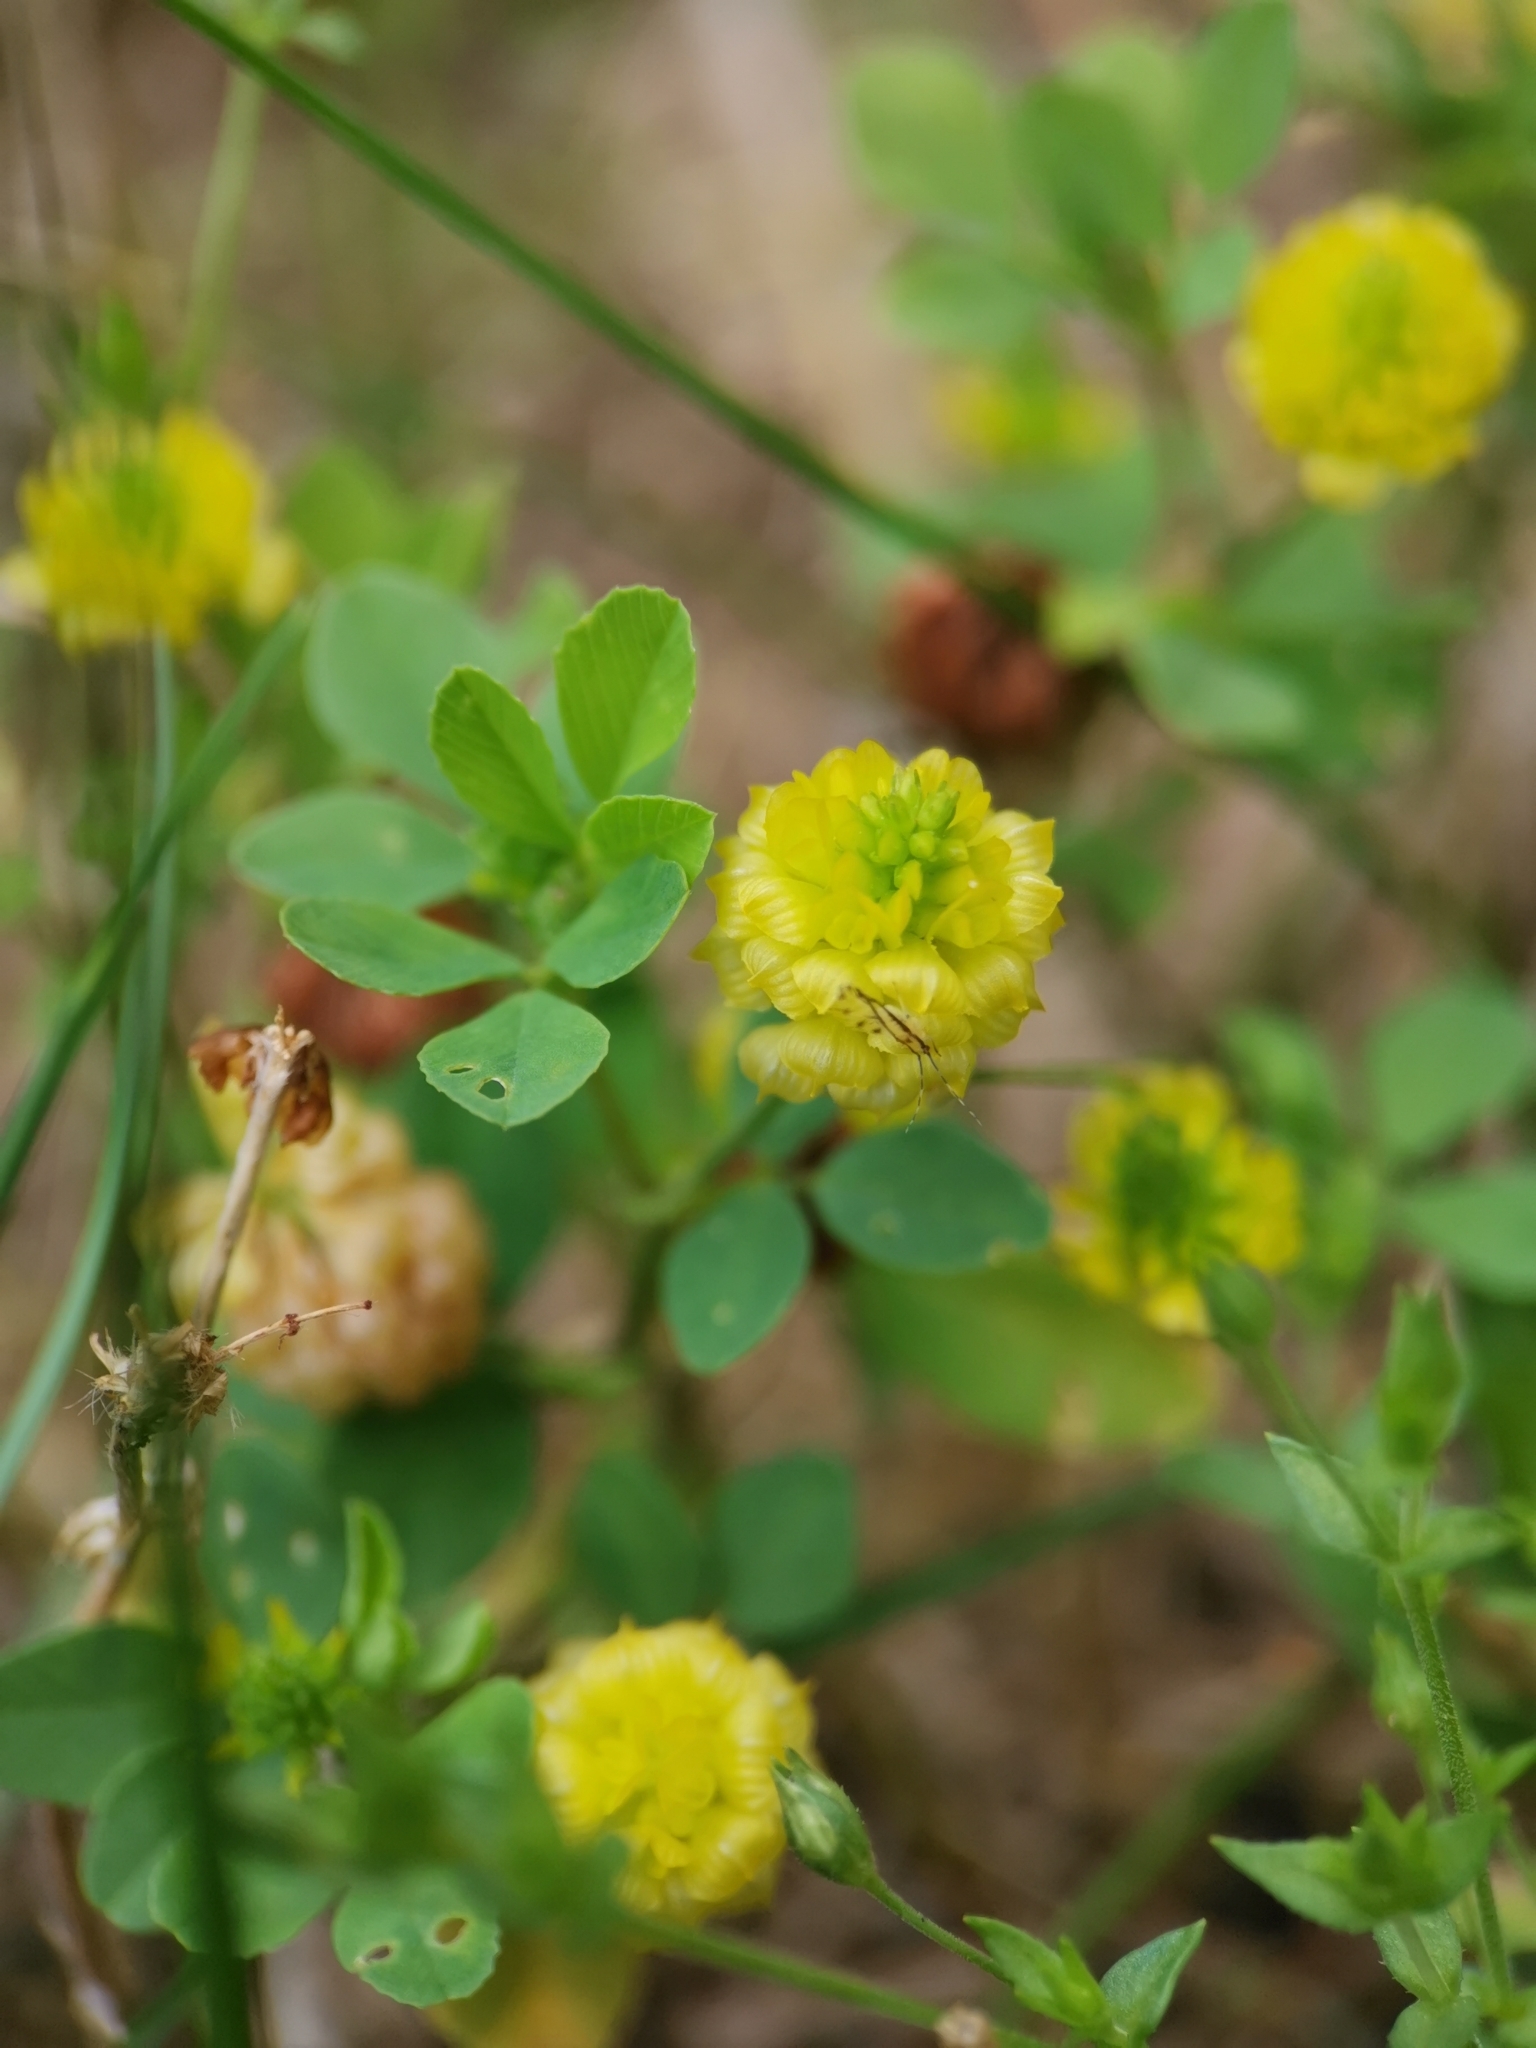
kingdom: Plantae
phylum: Tracheophyta
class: Magnoliopsida
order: Fabales
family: Fabaceae
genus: Trifolium
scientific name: Trifolium campestre
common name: Field clover
